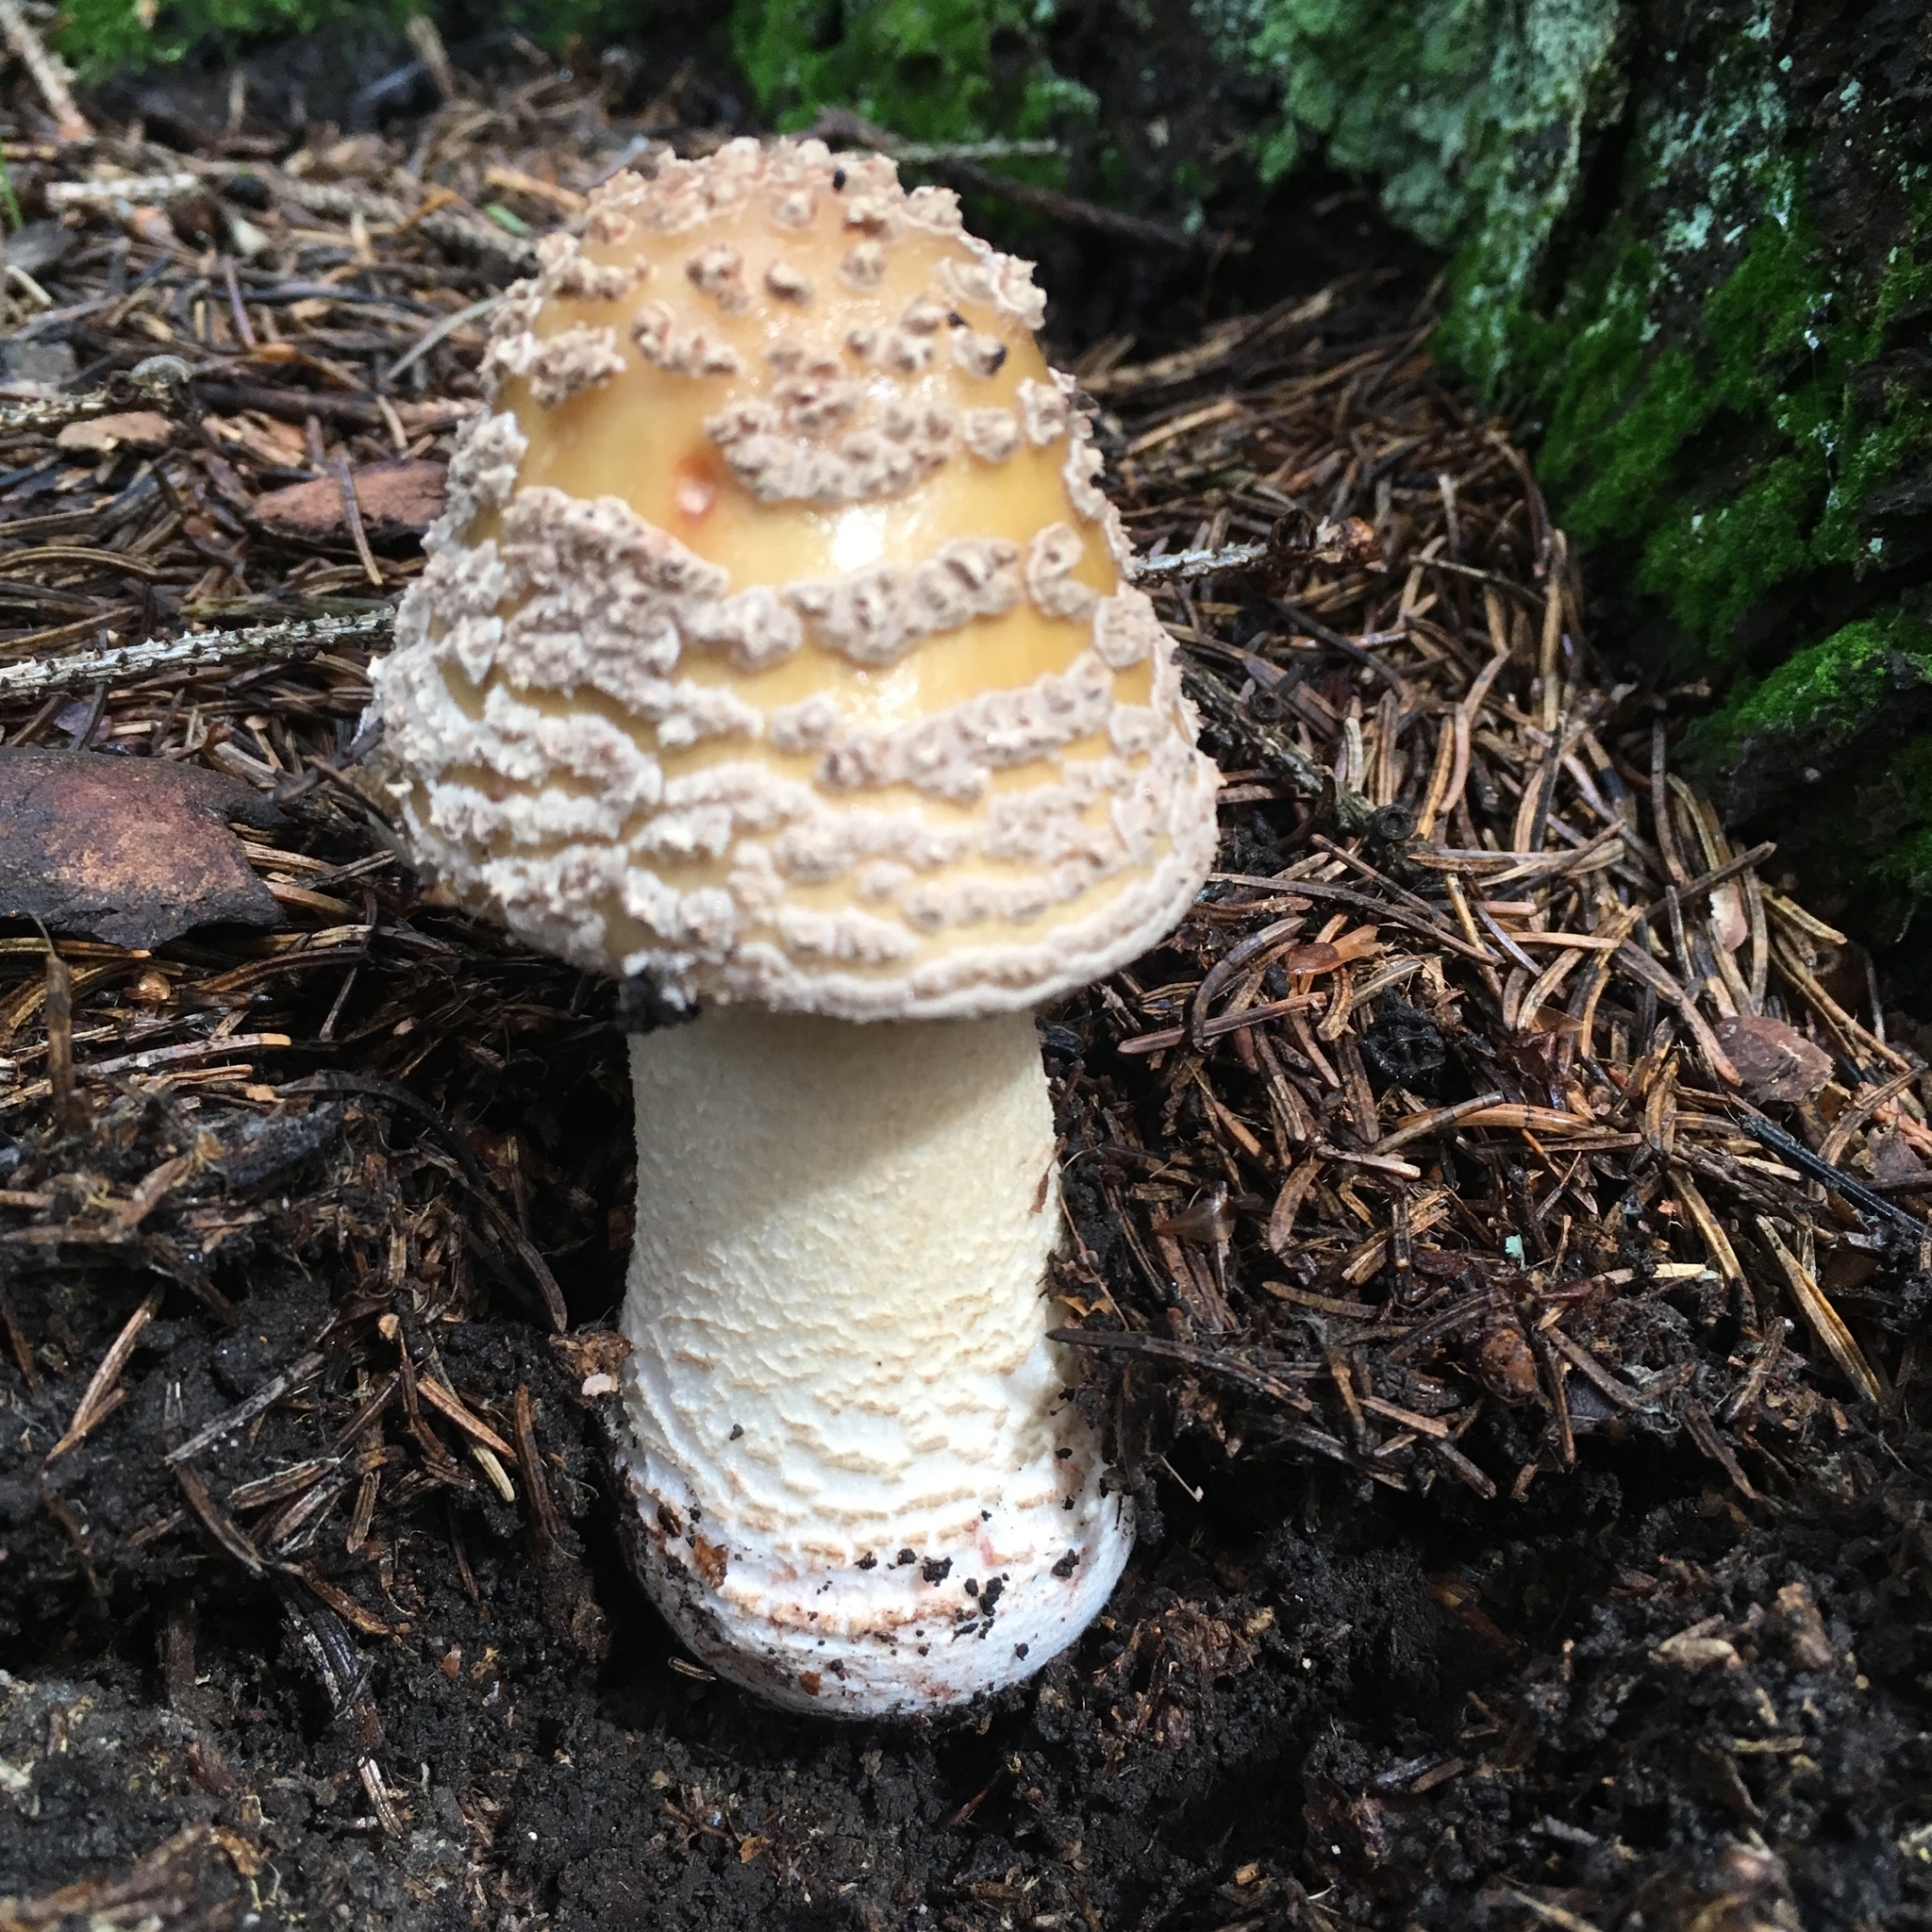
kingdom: Fungi
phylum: Basidiomycota
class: Agaricomycetes
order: Agaricales
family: Amanitaceae
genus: Amanita
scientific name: Amanita flavorubens
